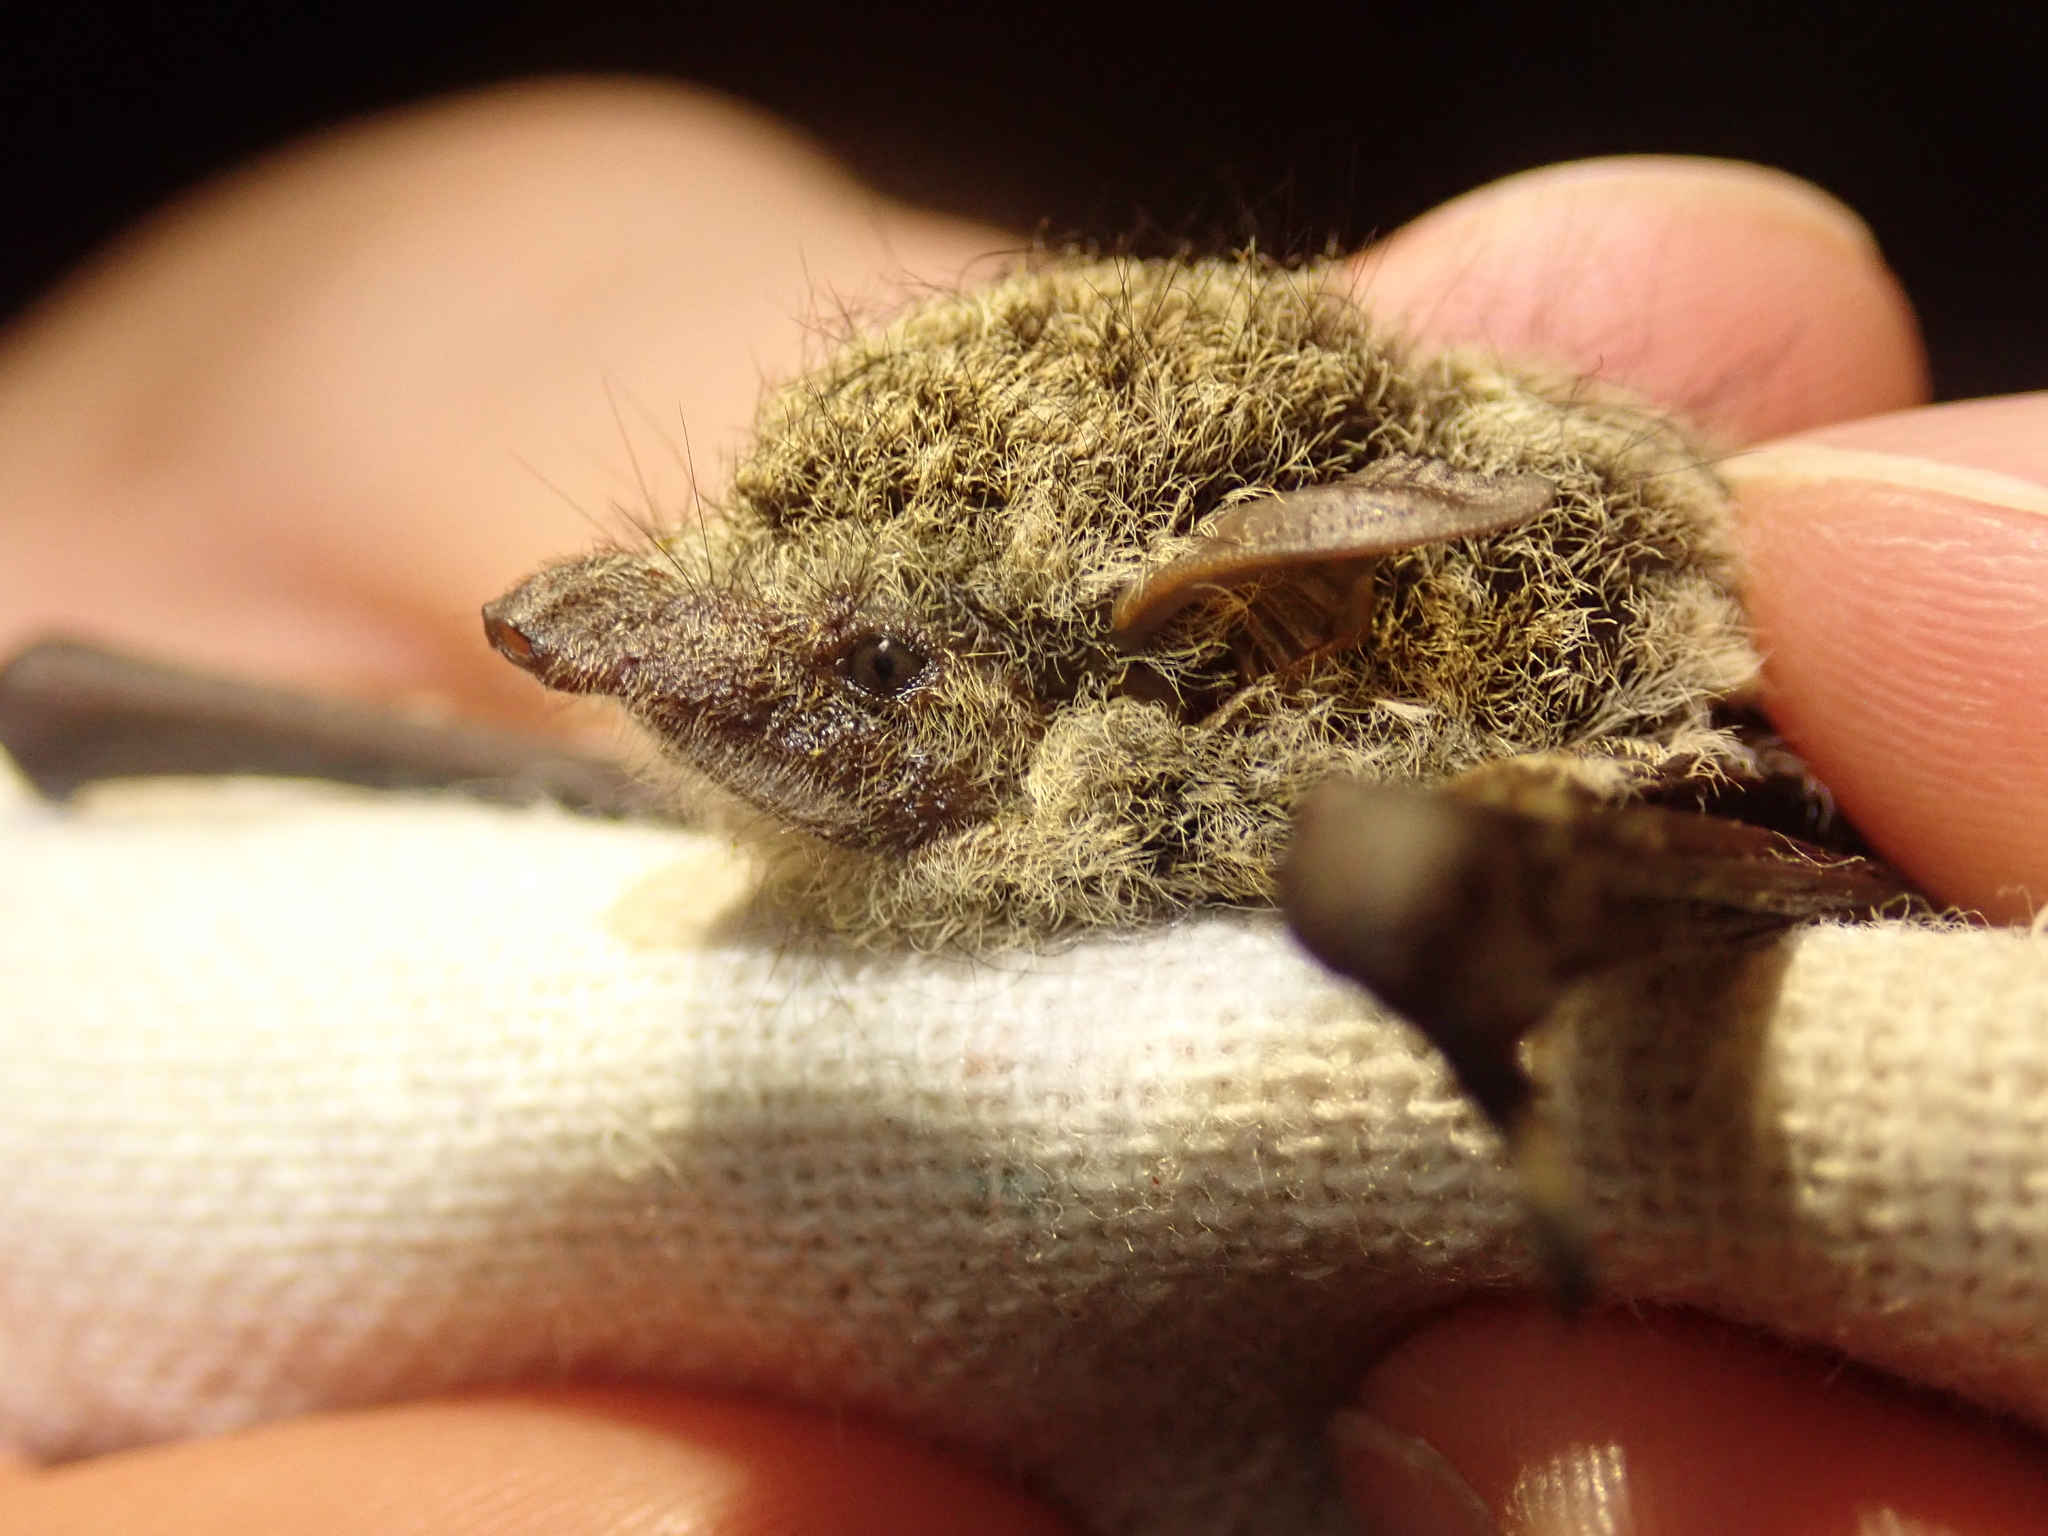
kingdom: Animalia
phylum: Chordata
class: Mammalia
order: Chiroptera
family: Emballonuridae
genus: Rhynchonycteris
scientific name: Rhynchonycteris naso
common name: Proboscis bat
